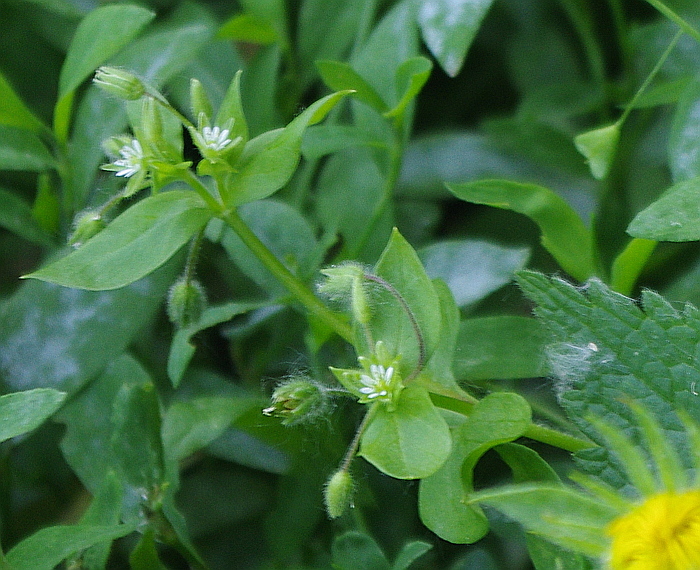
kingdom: Plantae
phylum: Tracheophyta
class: Magnoliopsida
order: Caryophyllales
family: Caryophyllaceae
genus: Stellaria
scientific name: Stellaria aquatica
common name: Water chickweed
